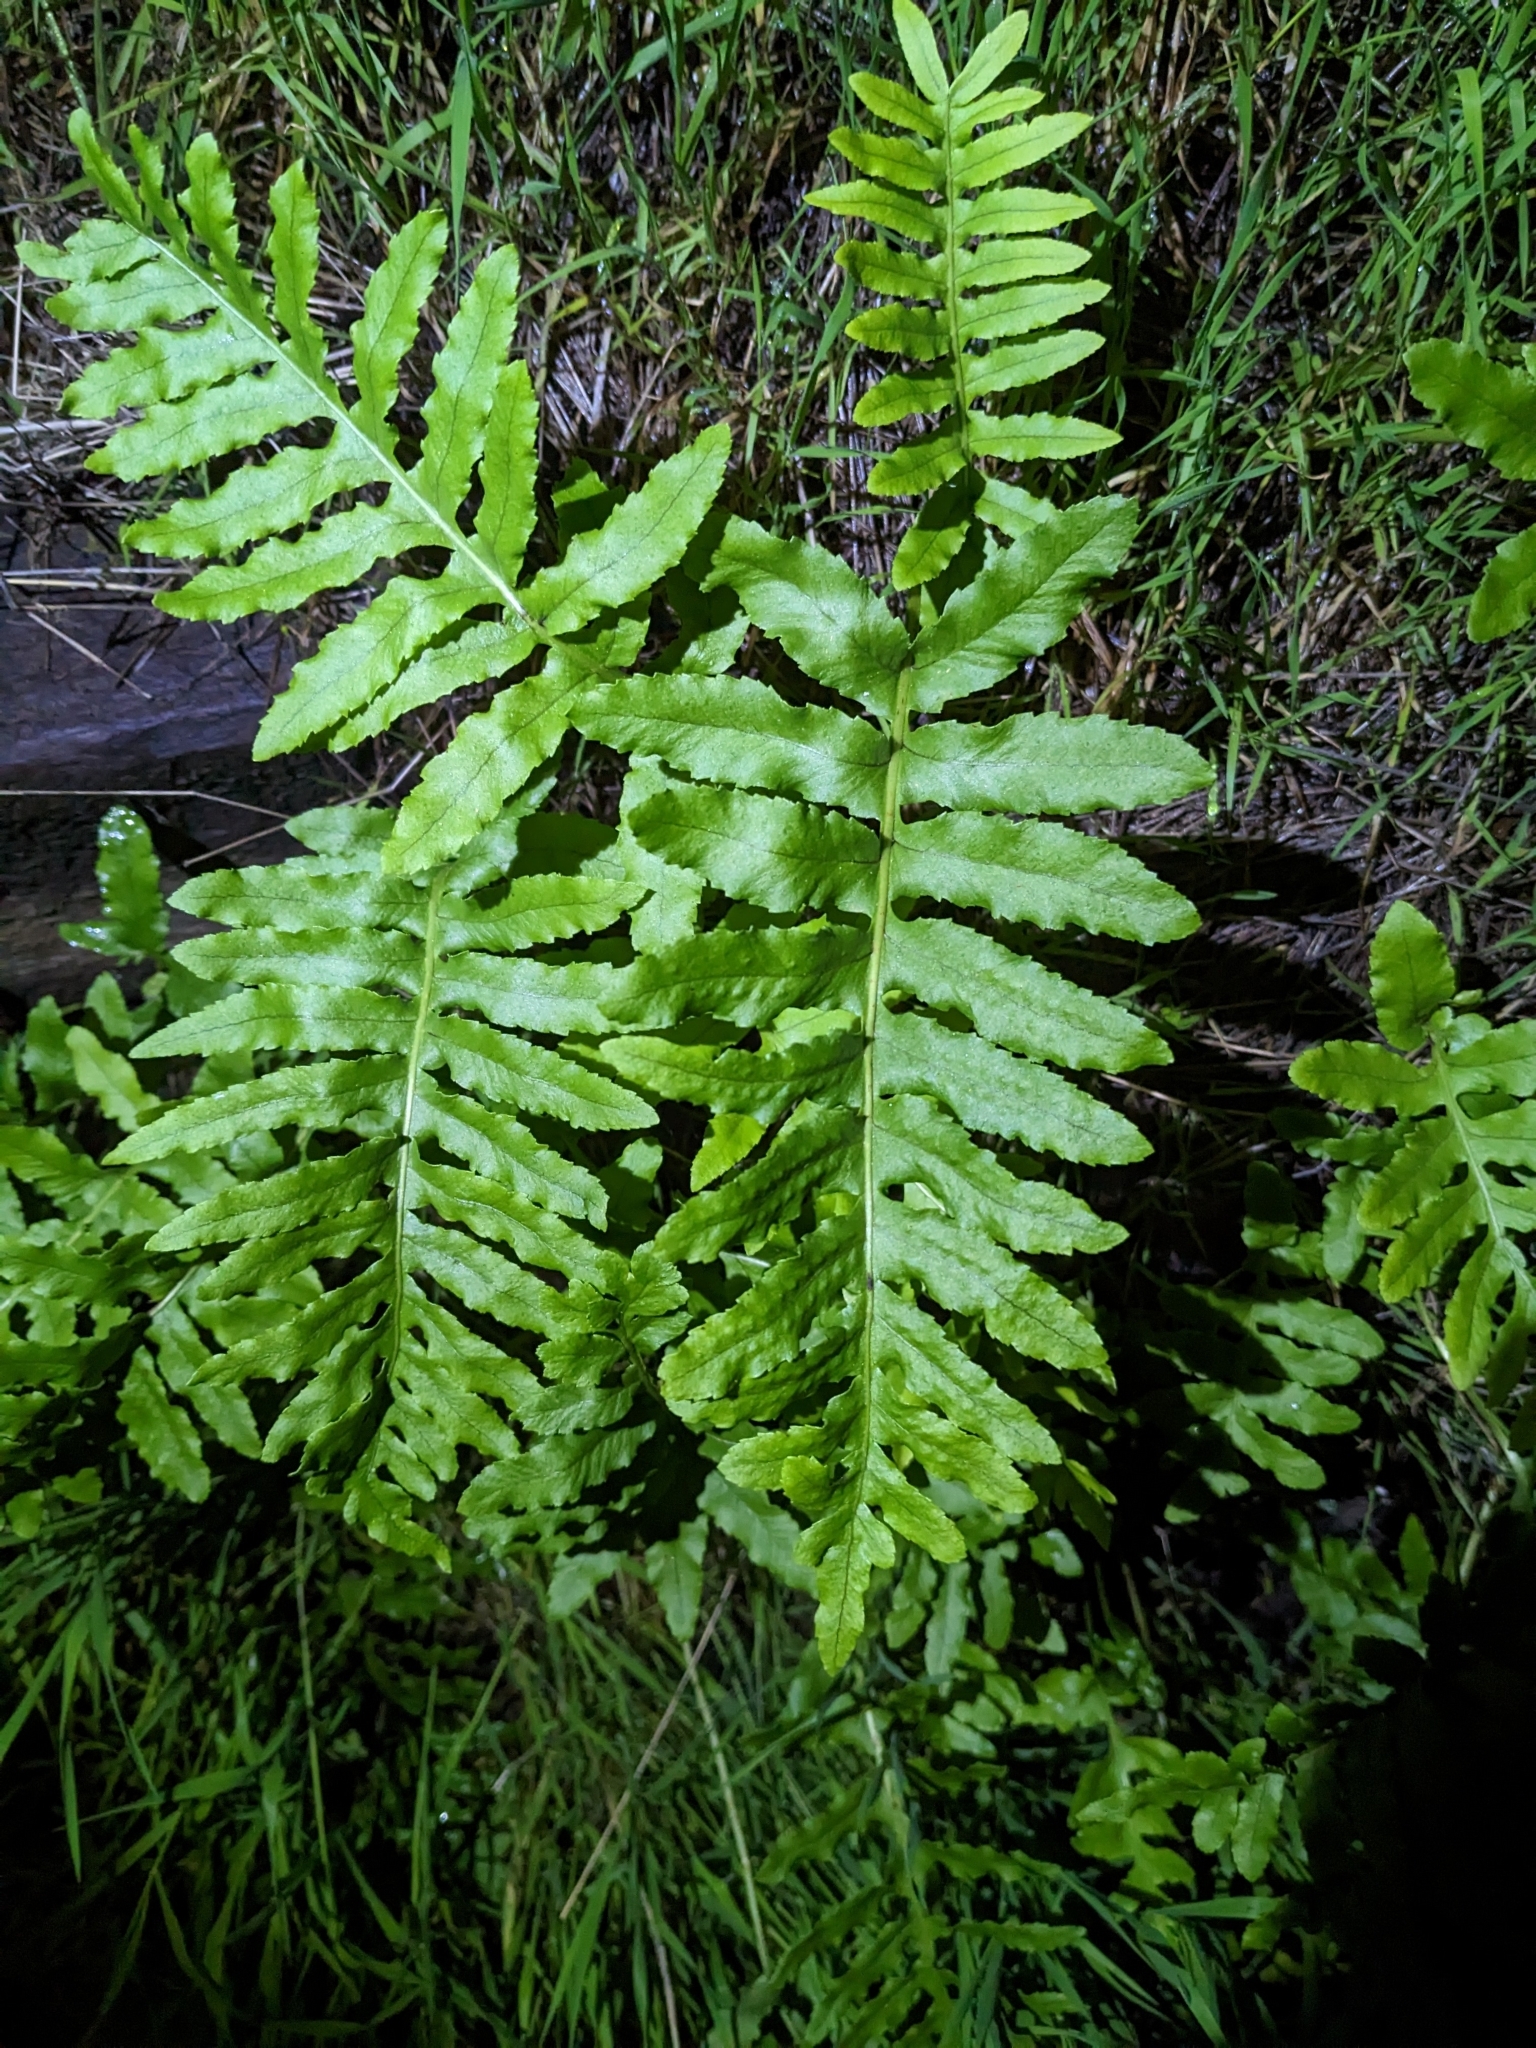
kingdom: Plantae
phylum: Tracheophyta
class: Polypodiopsida
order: Polypodiales
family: Polypodiaceae
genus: Polypodium
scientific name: Polypodium californicum
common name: California polypody
